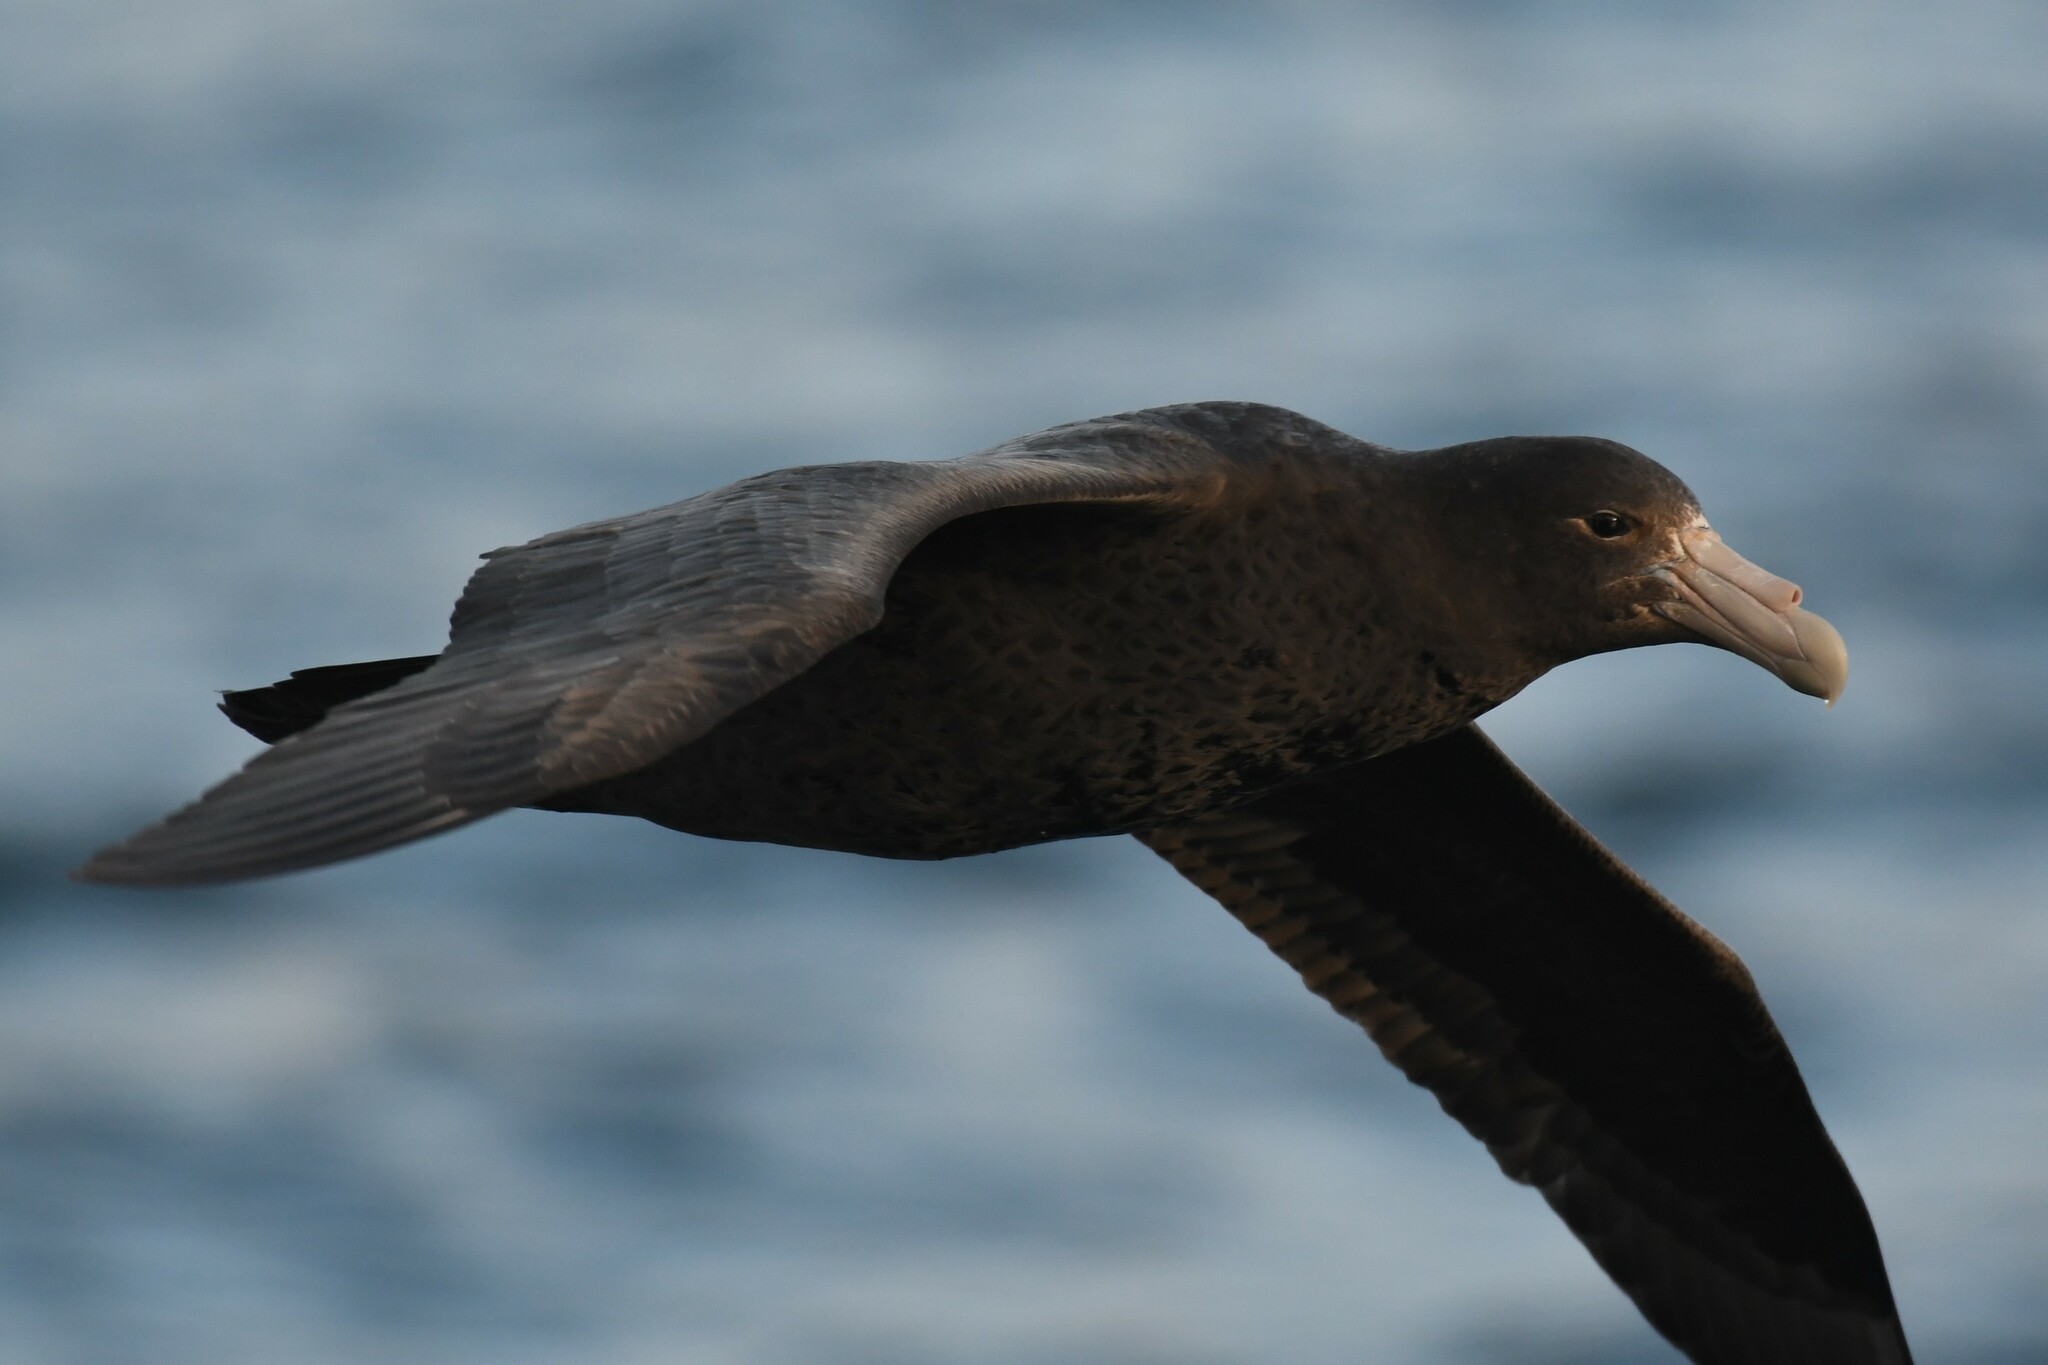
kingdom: Animalia
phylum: Chordata
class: Aves
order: Procellariiformes
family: Procellariidae
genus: Macronectes
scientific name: Macronectes giganteus
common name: Southern giant petrel
